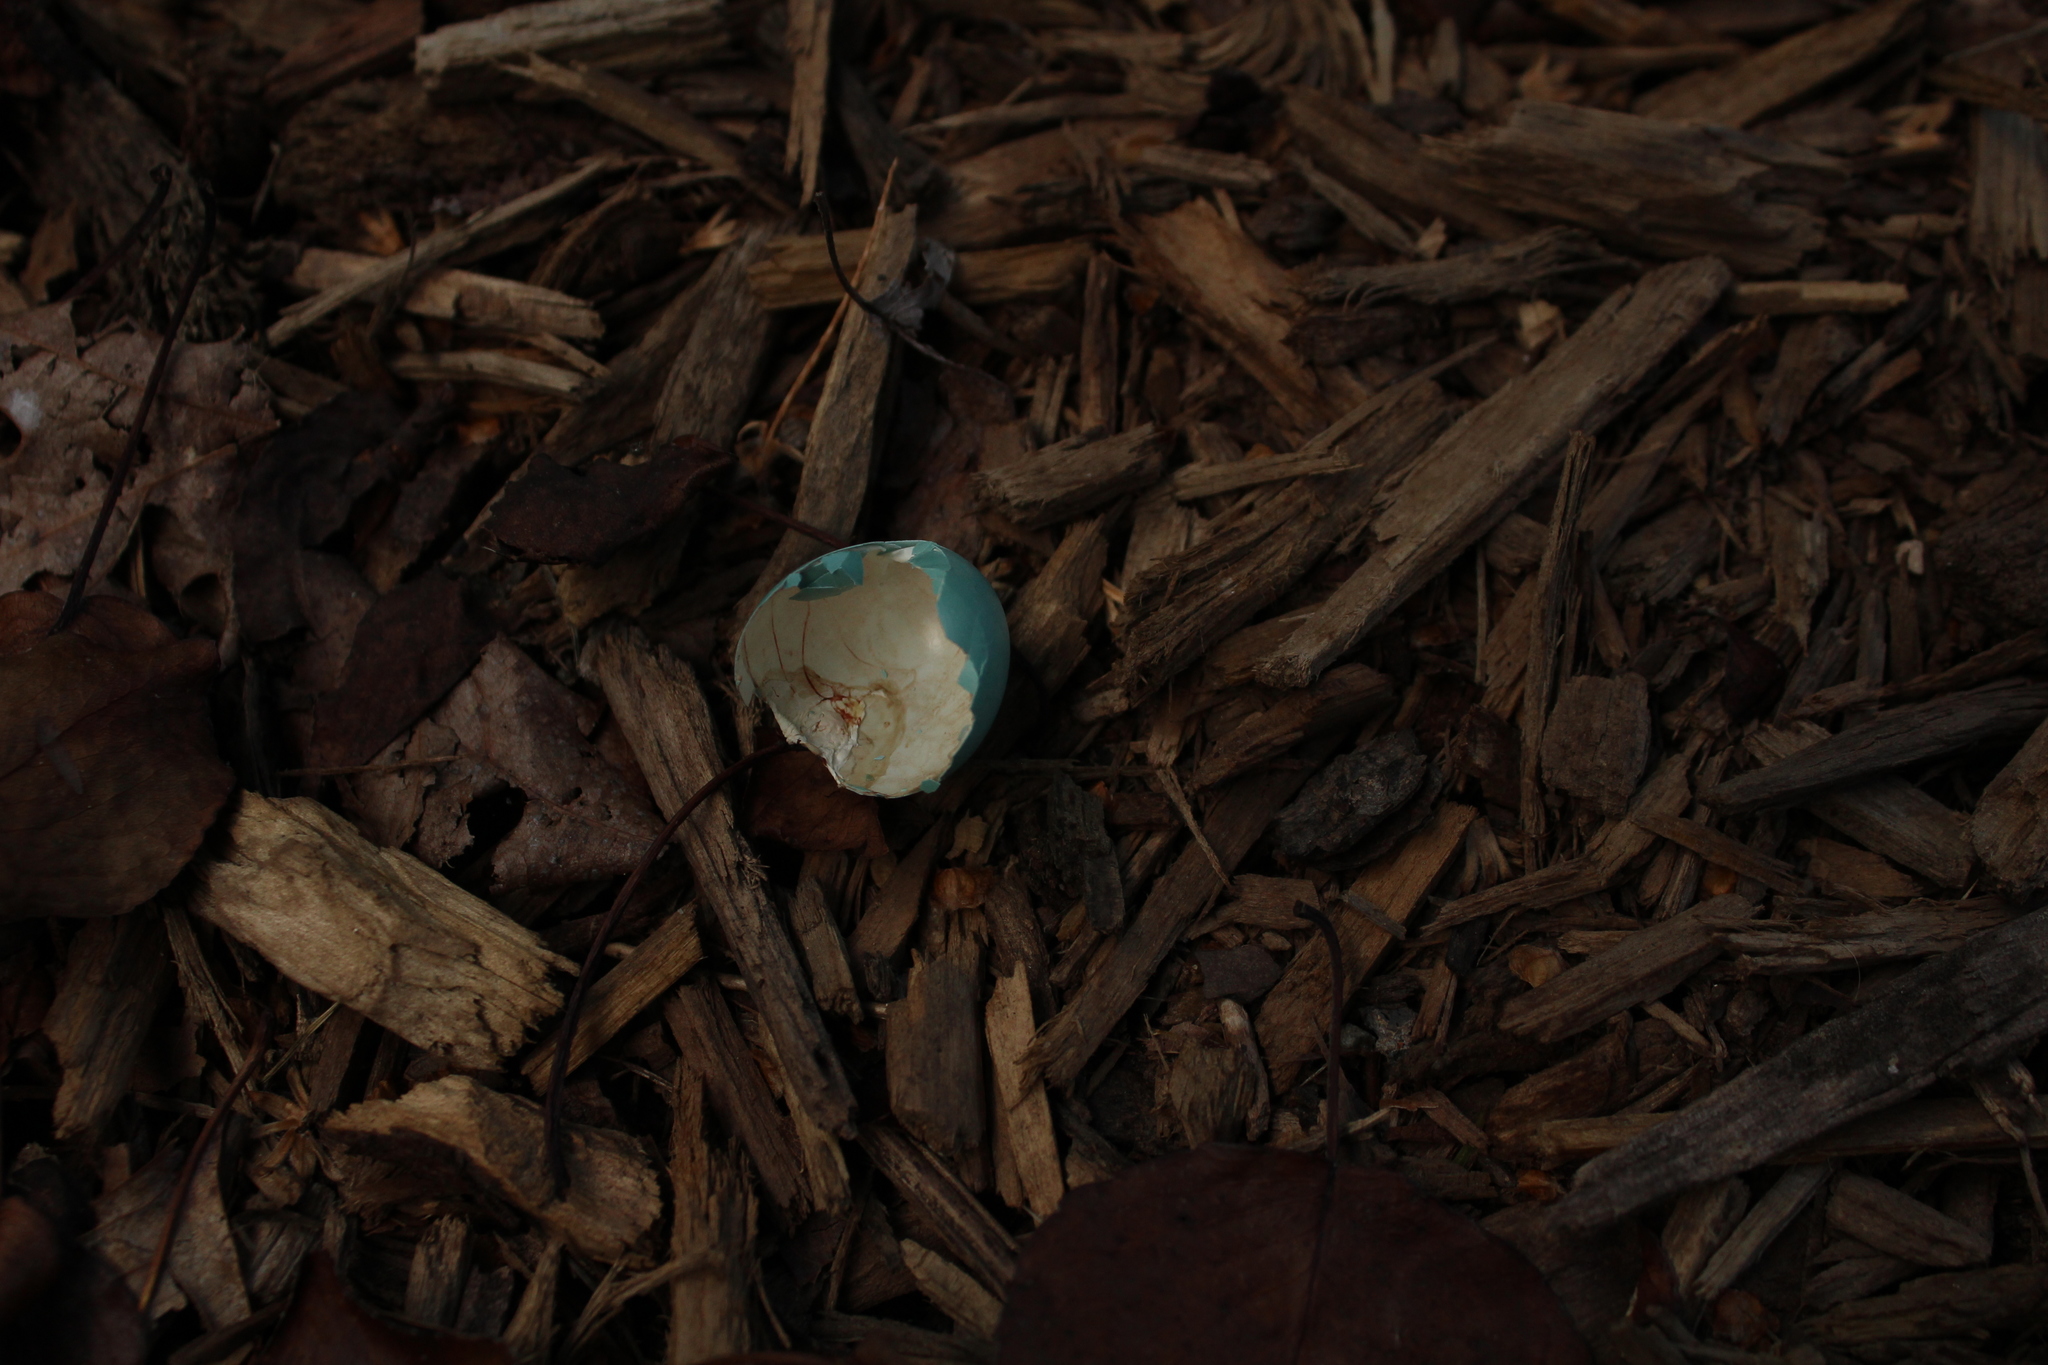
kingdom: Animalia
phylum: Chordata
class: Aves
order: Passeriformes
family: Turdidae
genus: Turdus
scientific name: Turdus migratorius
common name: American robin
